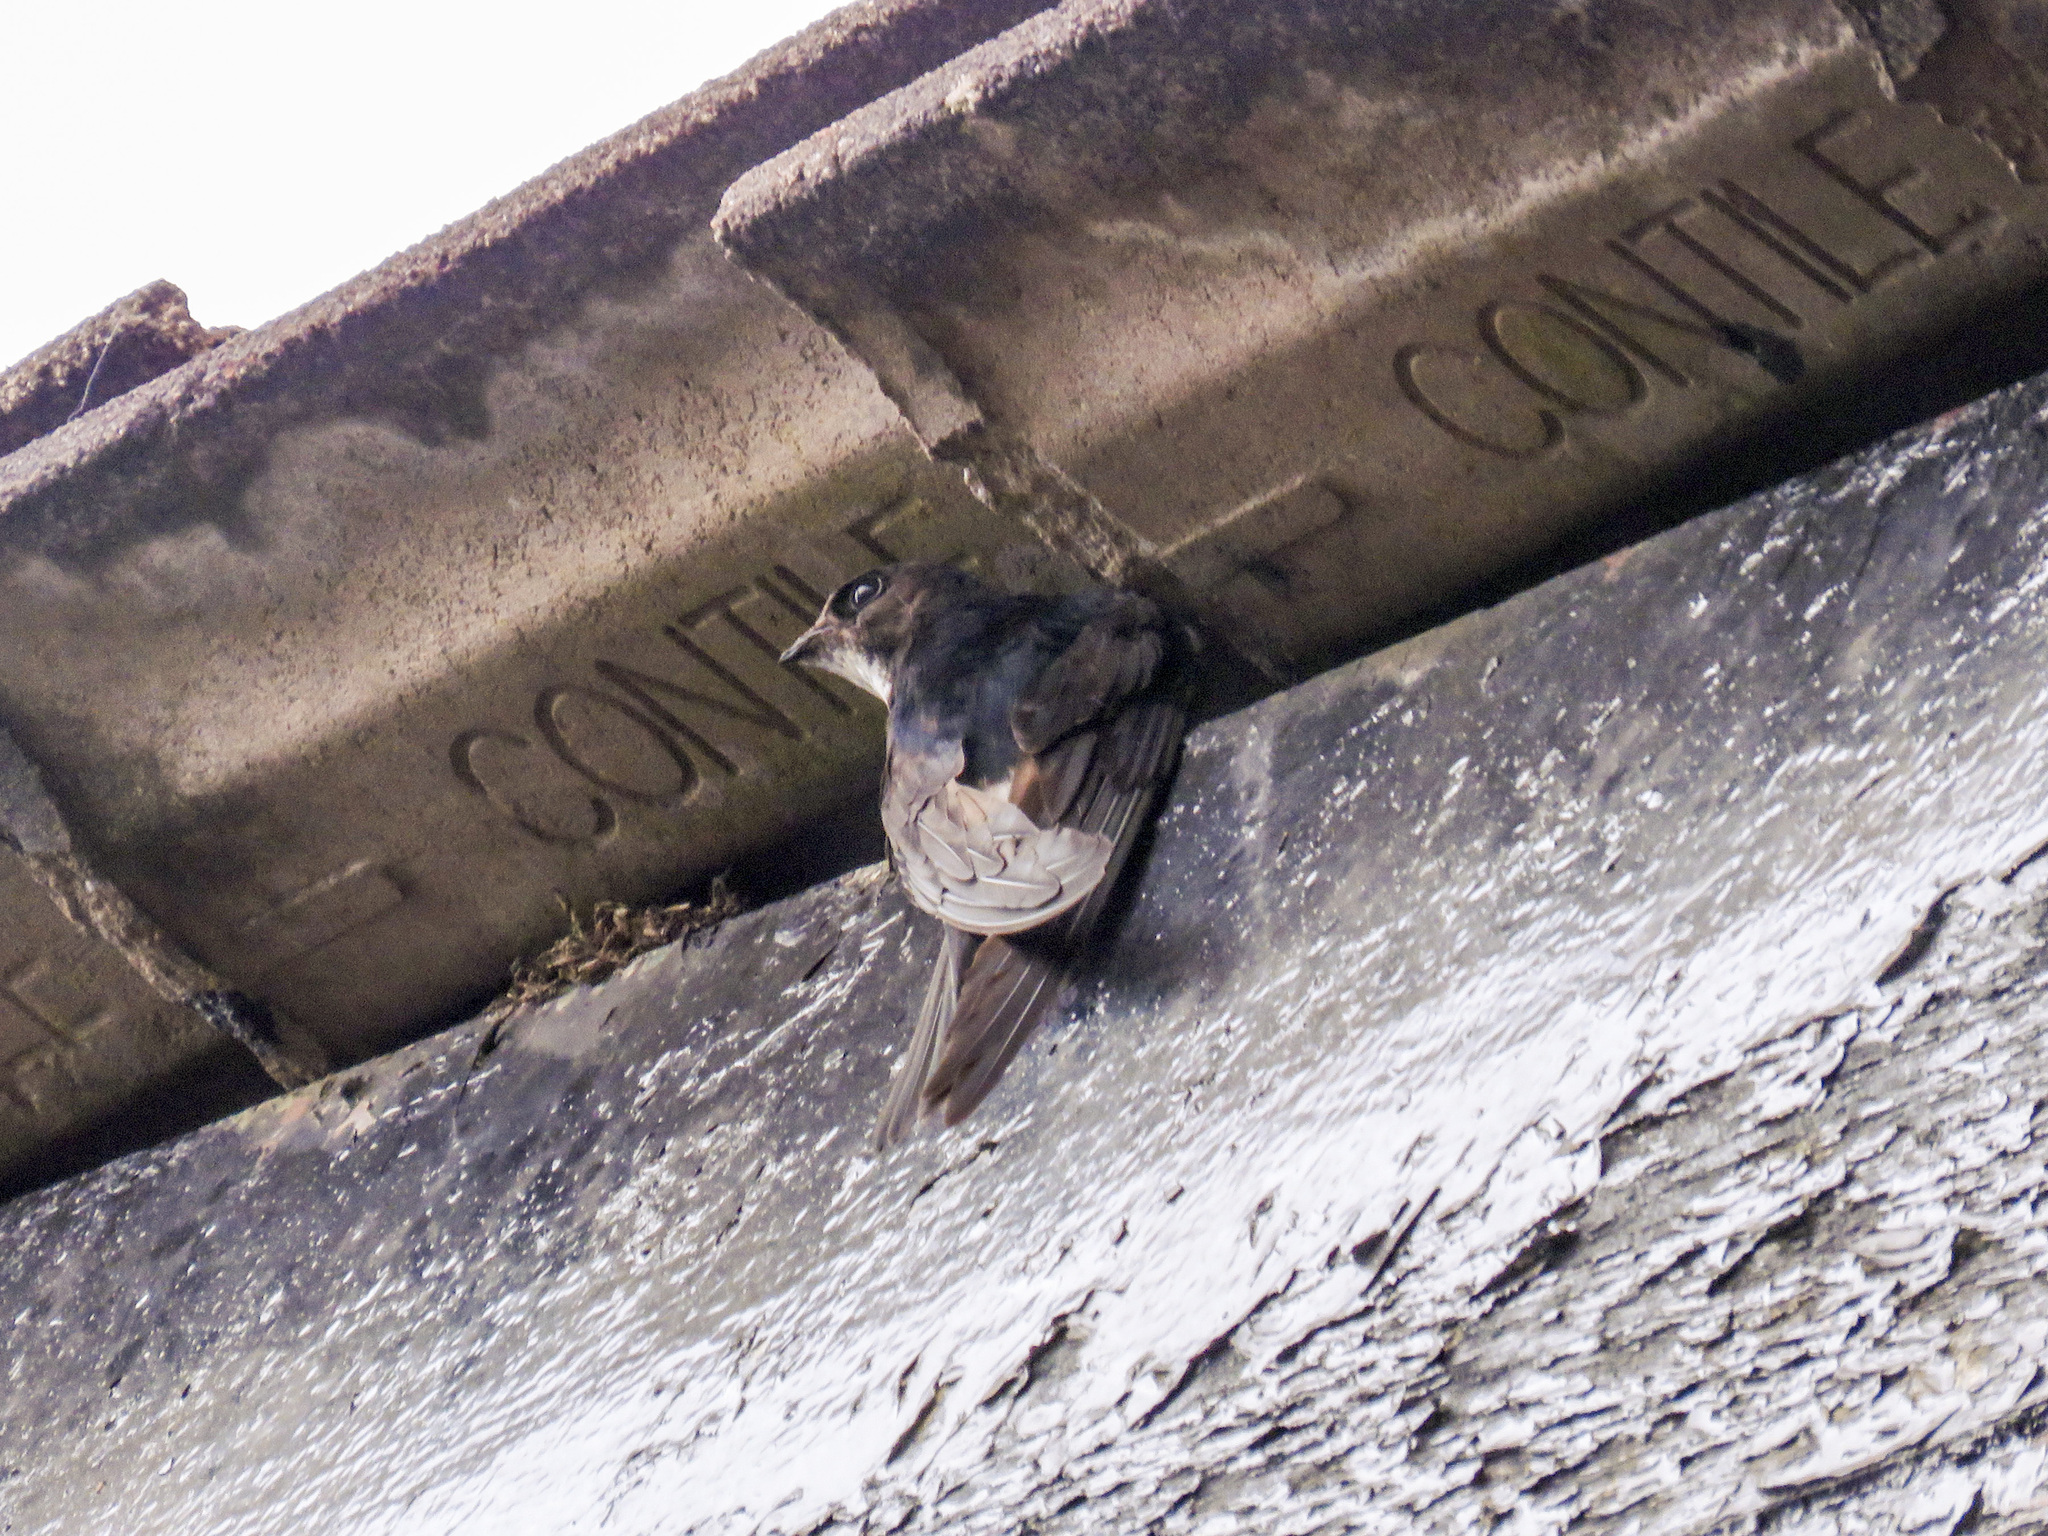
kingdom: Animalia
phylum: Chordata
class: Aves
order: Apodiformes
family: Apodidae
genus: Apus
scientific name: Apus nipalensis
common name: House swift
